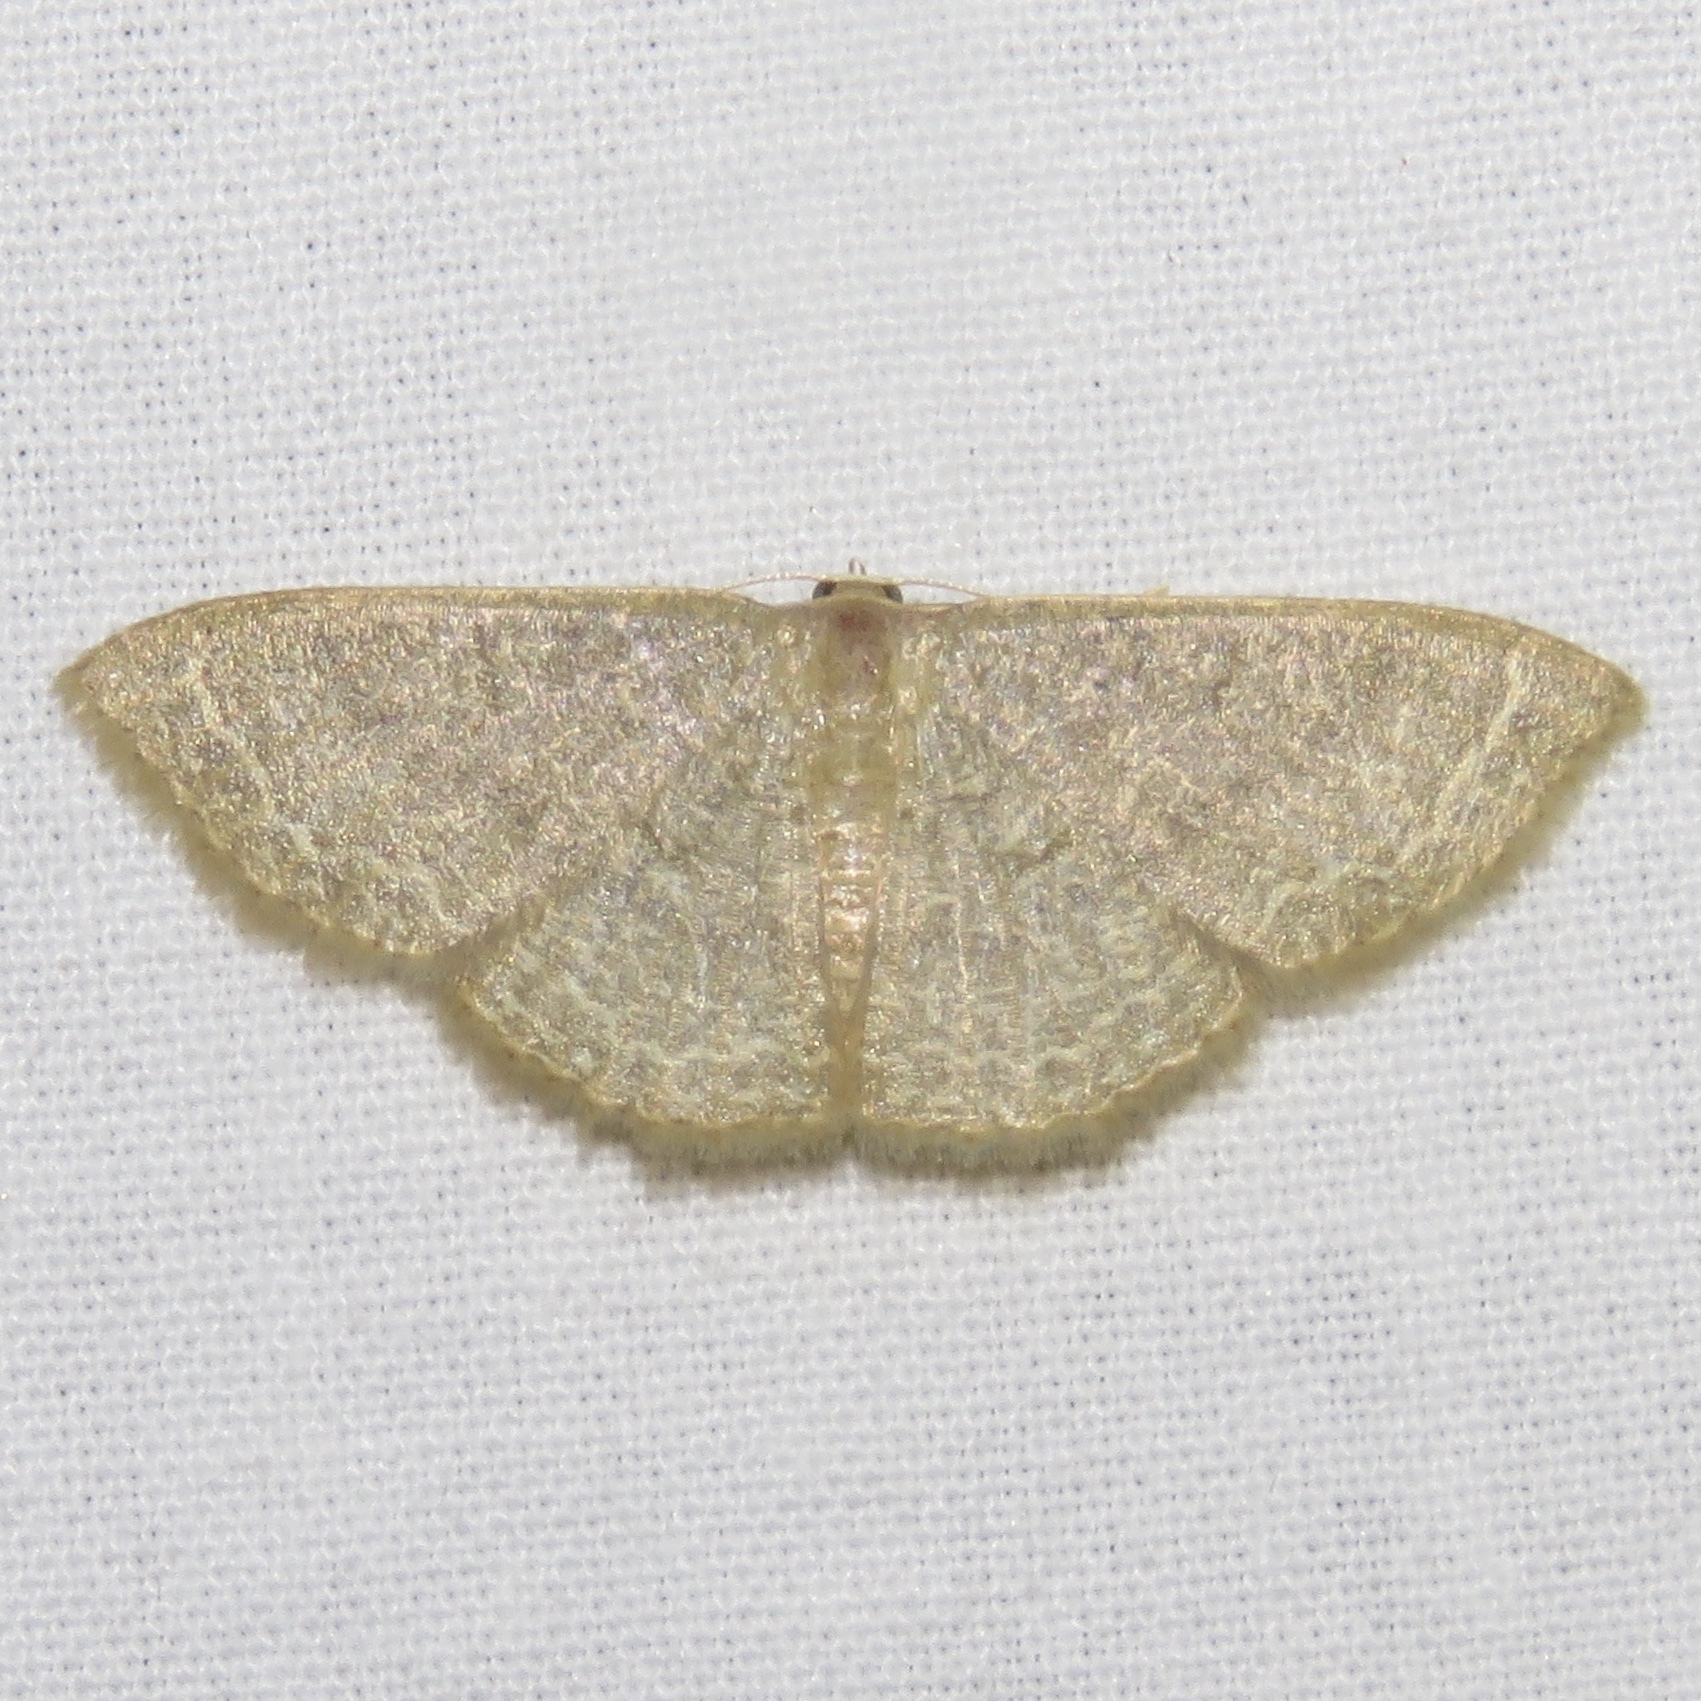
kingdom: Animalia
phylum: Arthropoda
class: Insecta
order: Lepidoptera
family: Geometridae
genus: Pleuroprucha
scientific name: Pleuroprucha insulsaria
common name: Common tan wave
